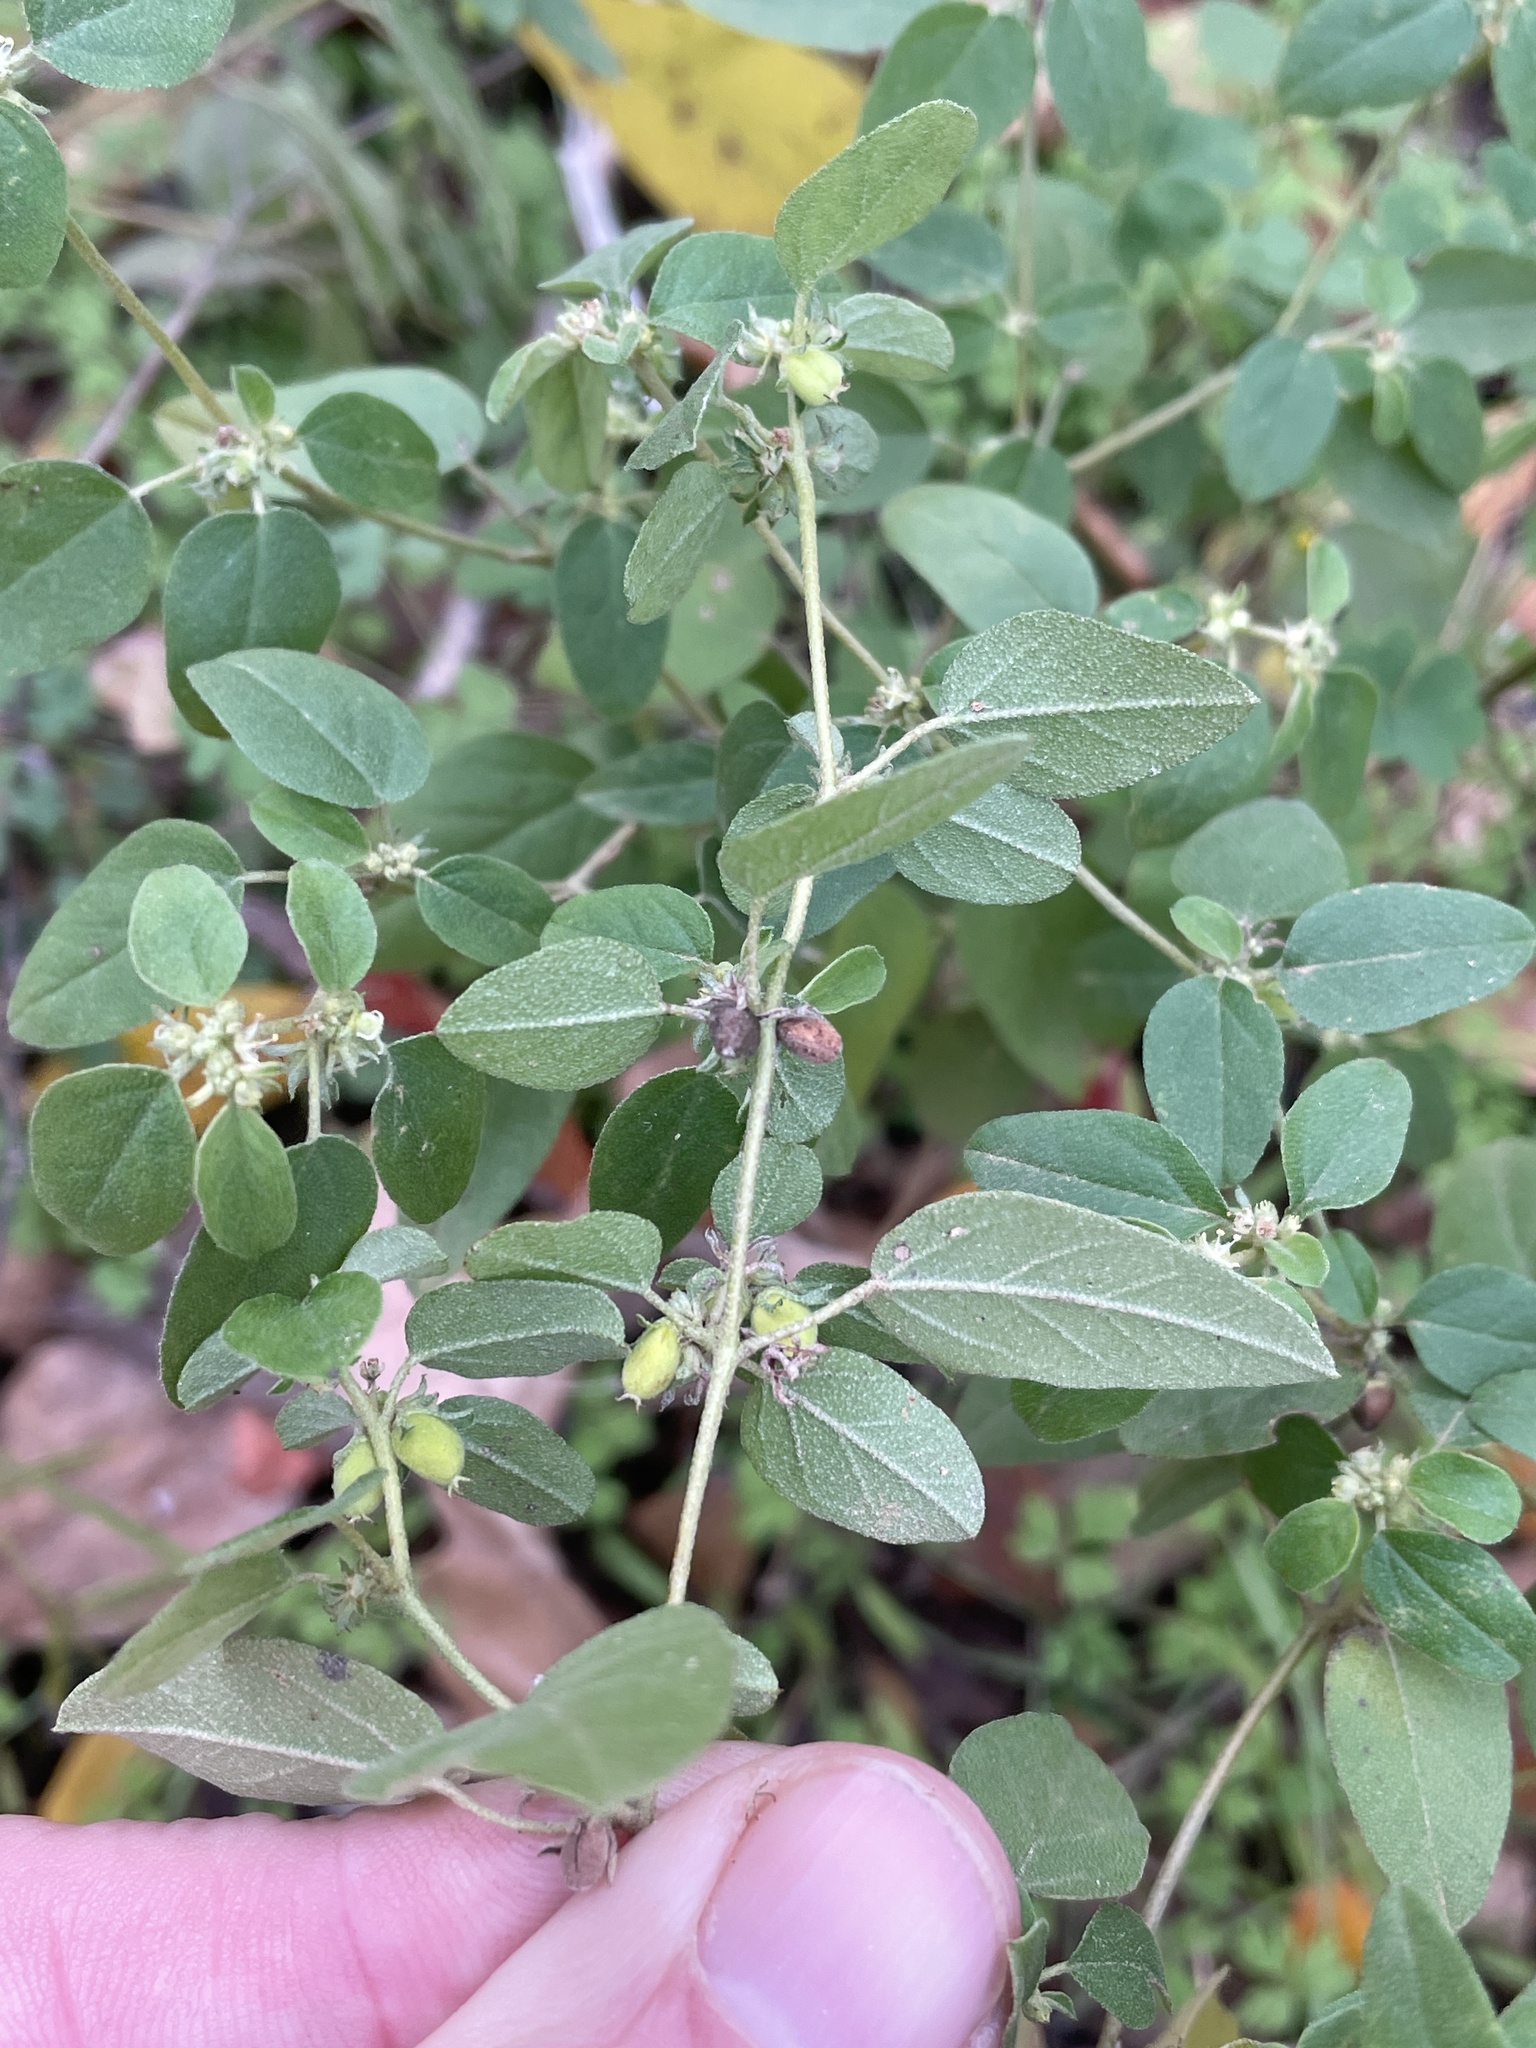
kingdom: Plantae
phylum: Tracheophyta
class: Magnoliopsida
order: Malpighiales
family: Euphorbiaceae
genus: Croton
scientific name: Croton monanthogynus
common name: One-seed croton
